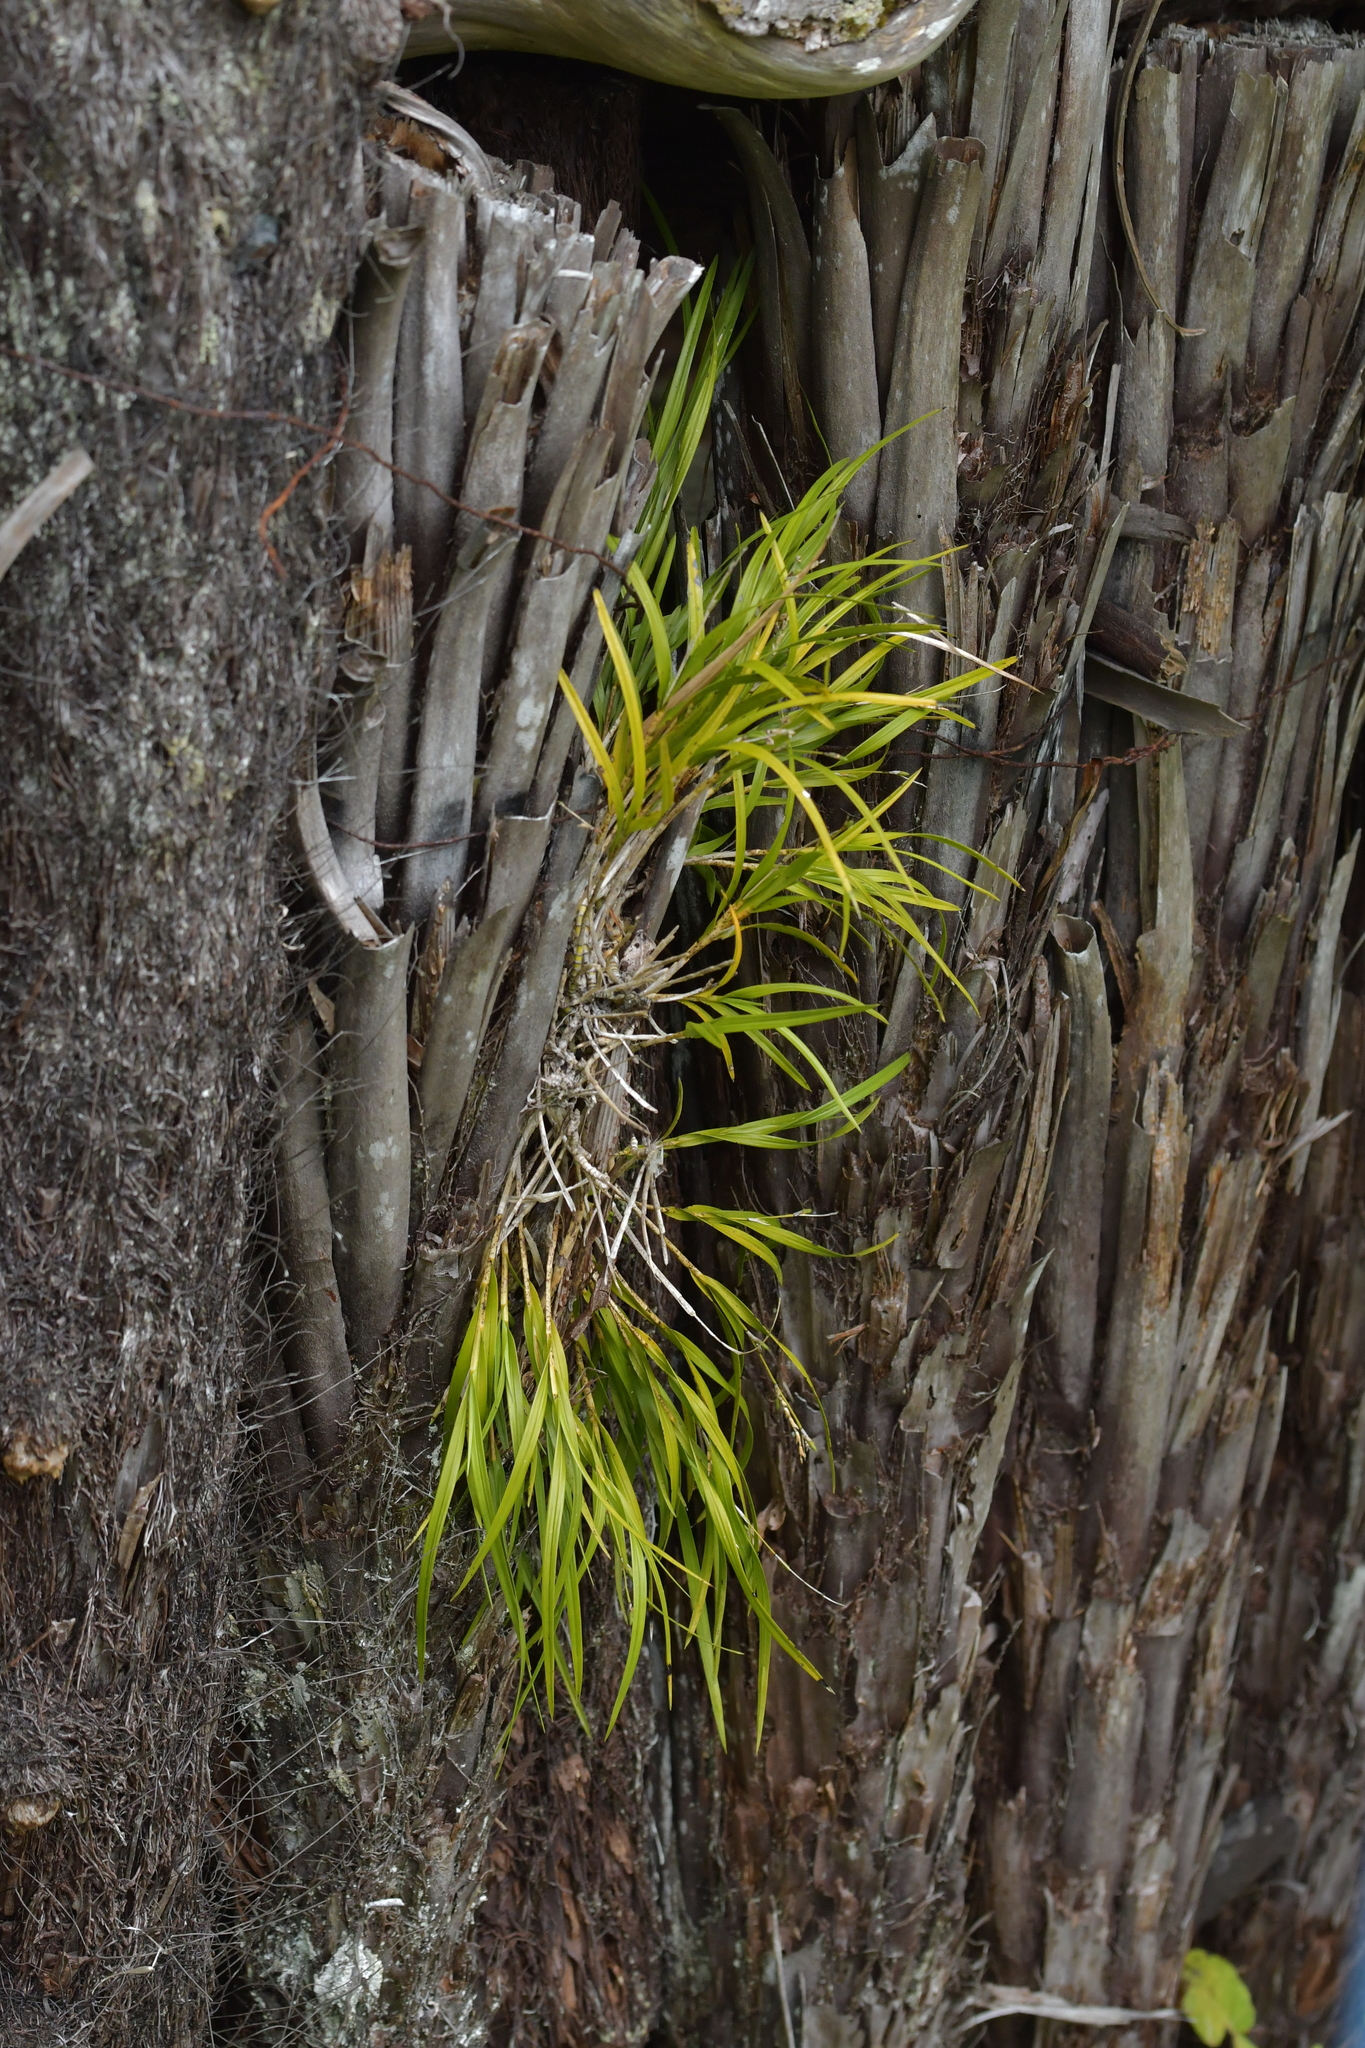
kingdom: Plantae
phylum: Tracheophyta
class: Liliopsida
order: Asparagales
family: Orchidaceae
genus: Earina
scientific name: Earina mucronata
